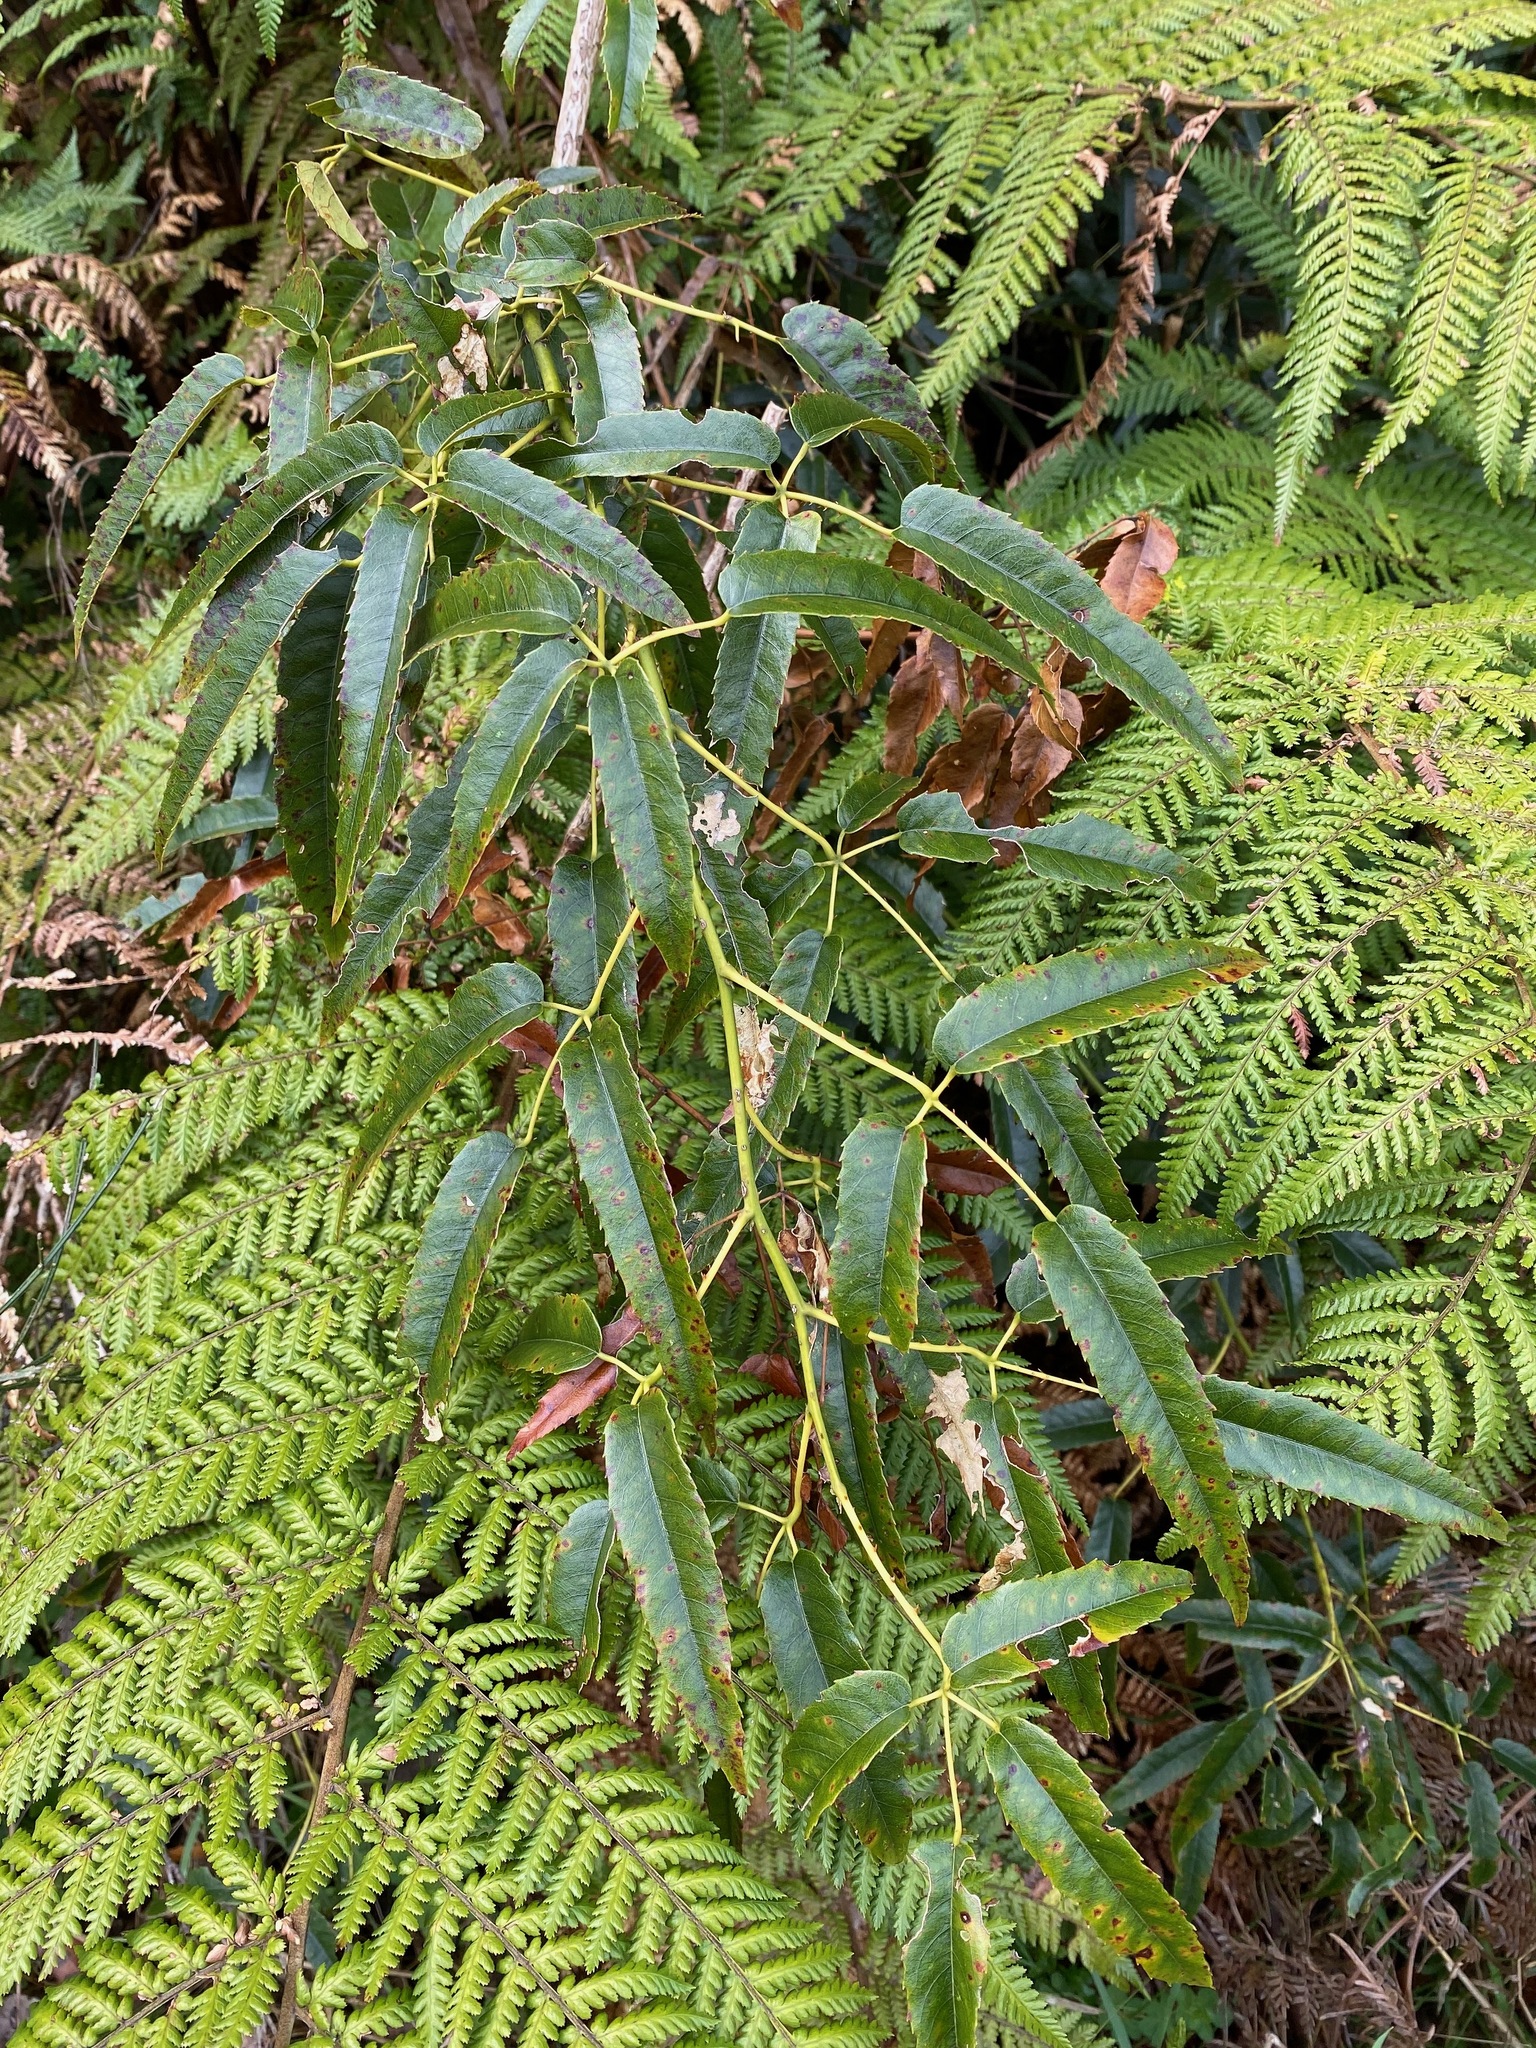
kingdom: Plantae
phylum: Tracheophyta
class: Magnoliopsida
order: Rosales
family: Rosaceae
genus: Rubus
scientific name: Rubus cissoides
